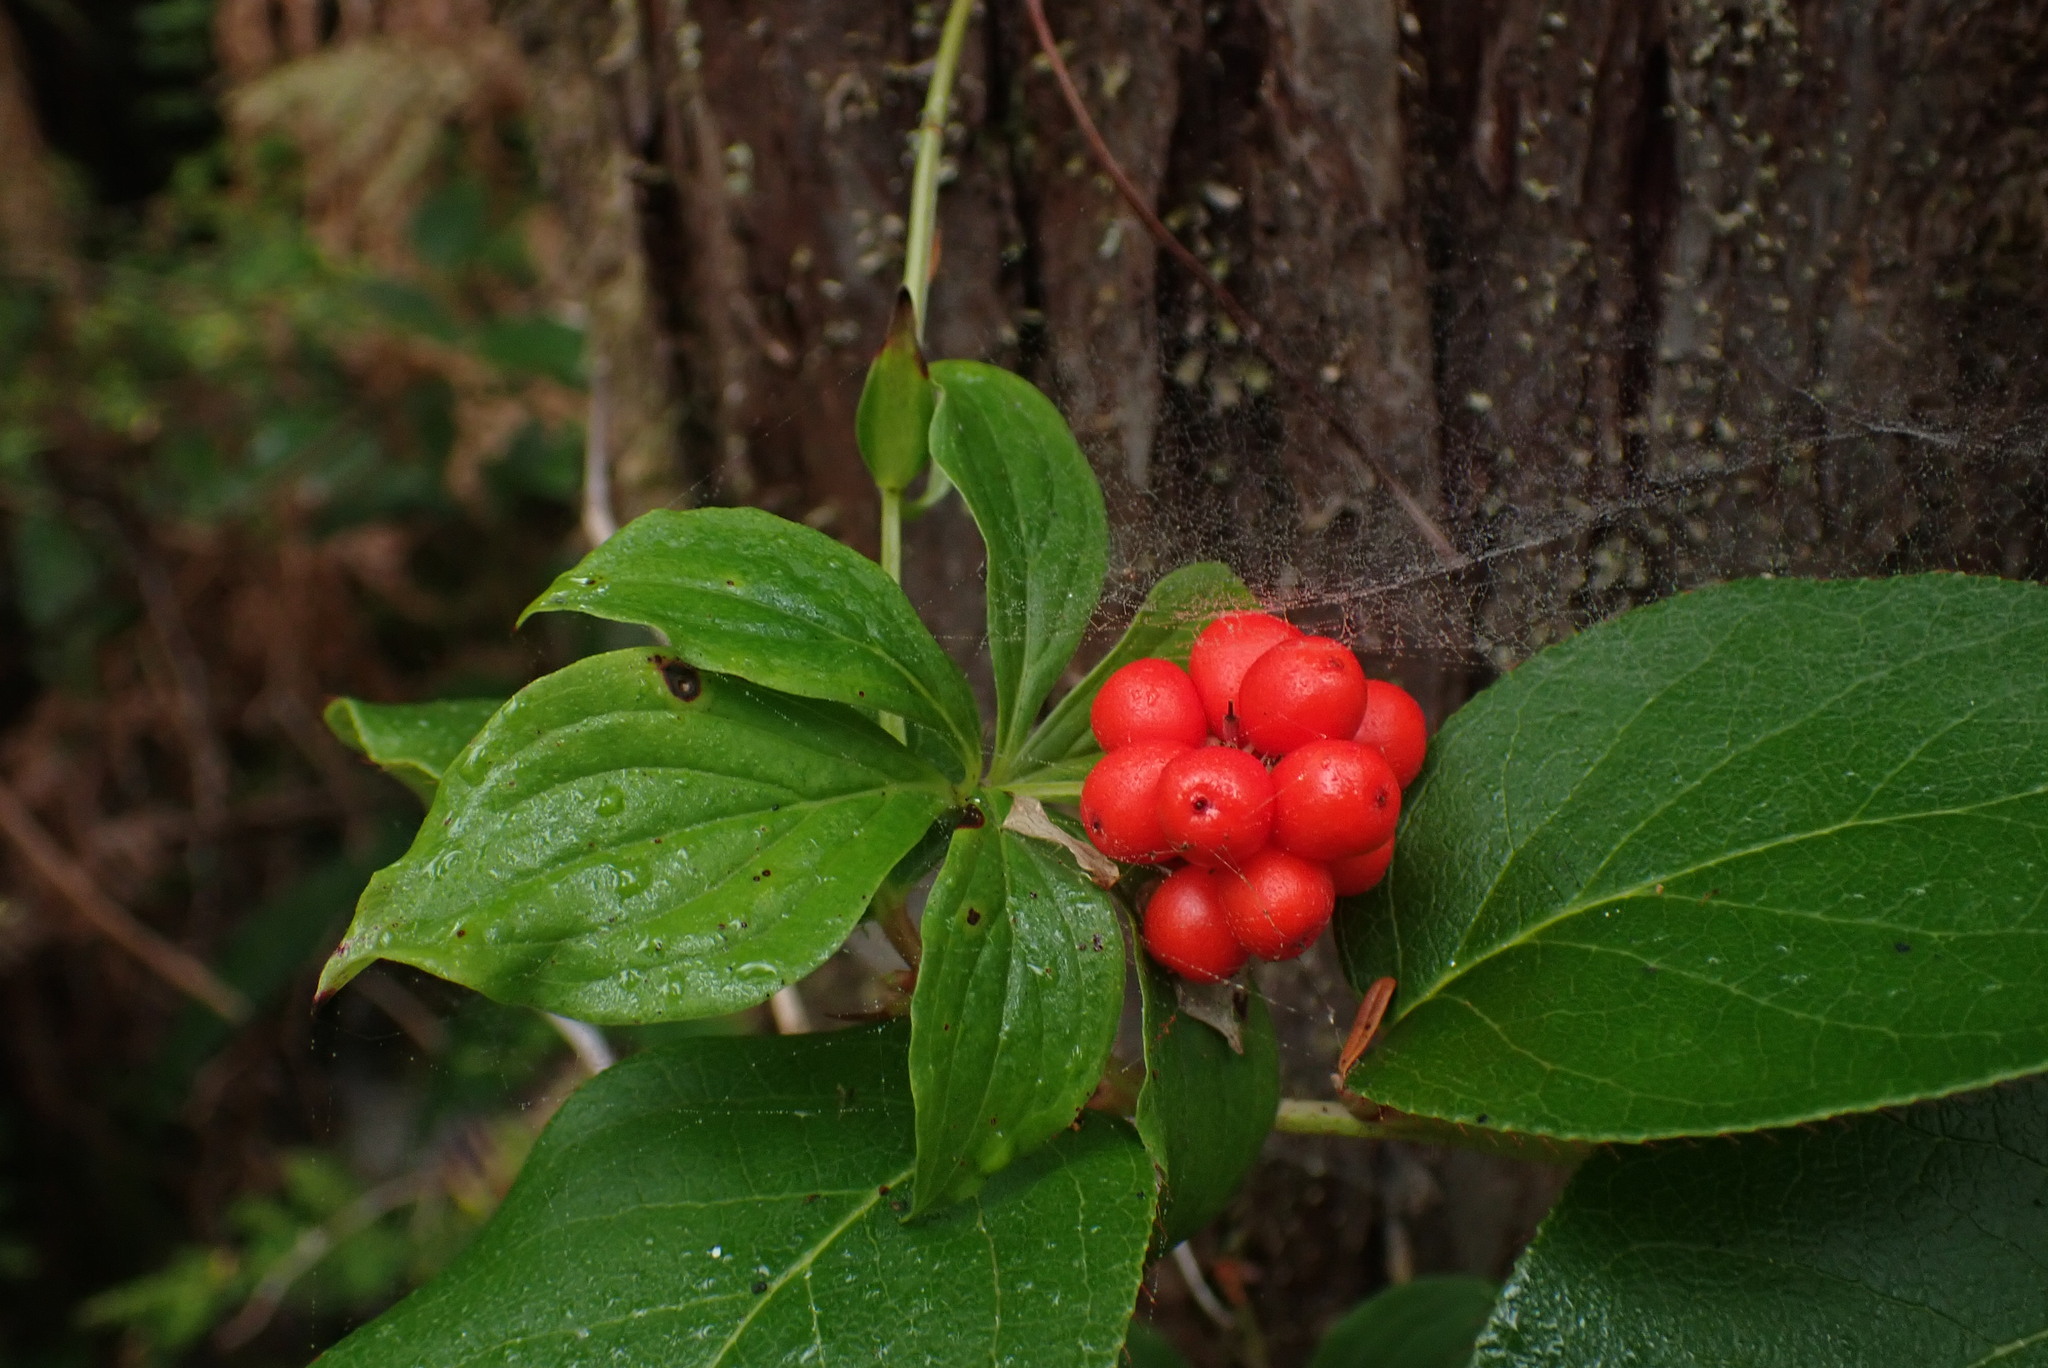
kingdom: Plantae
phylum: Tracheophyta
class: Magnoliopsida
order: Cornales
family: Cornaceae
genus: Cornus
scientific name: Cornus unalaschkensis
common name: Alaska bunchberry
